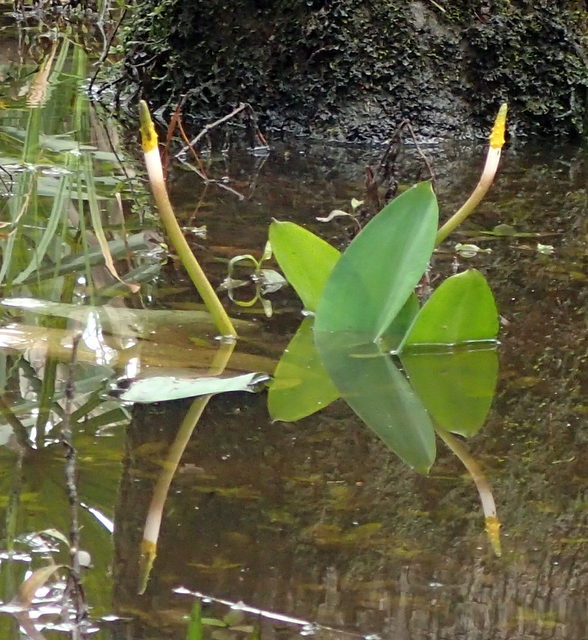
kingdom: Plantae
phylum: Tracheophyta
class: Liliopsida
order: Alismatales
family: Araceae
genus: Orontium
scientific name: Orontium aquaticum
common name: Golden-club
